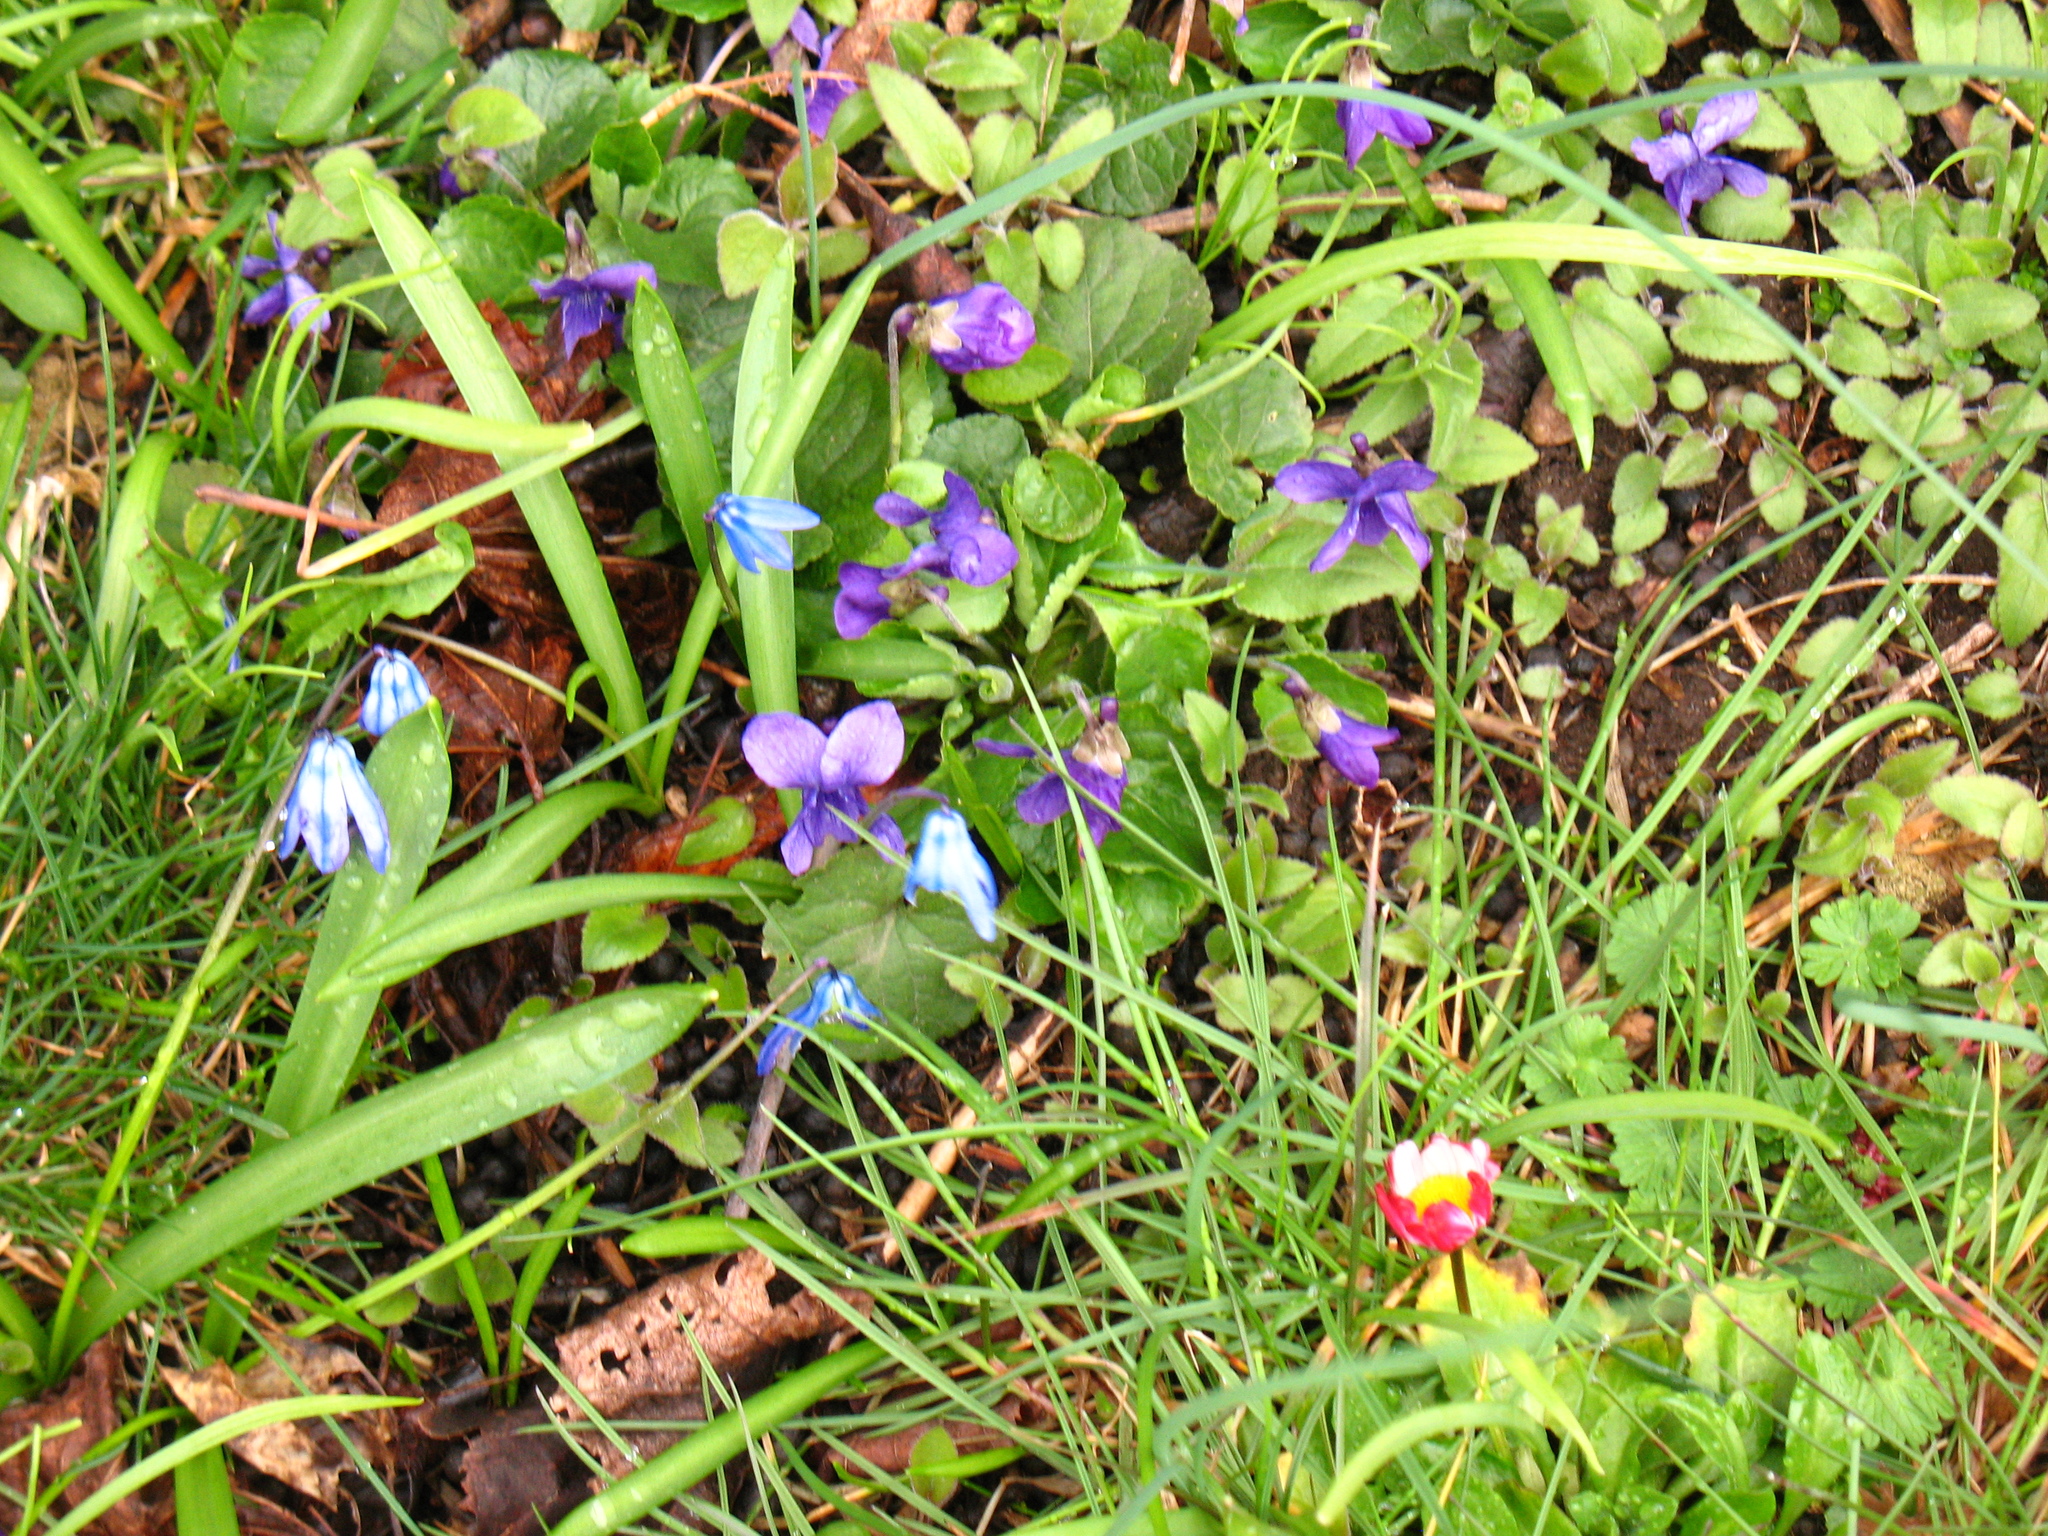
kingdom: Plantae
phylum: Tracheophyta
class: Magnoliopsida
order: Malpighiales
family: Violaceae
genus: Viola
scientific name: Viola odorata
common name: Sweet violet
